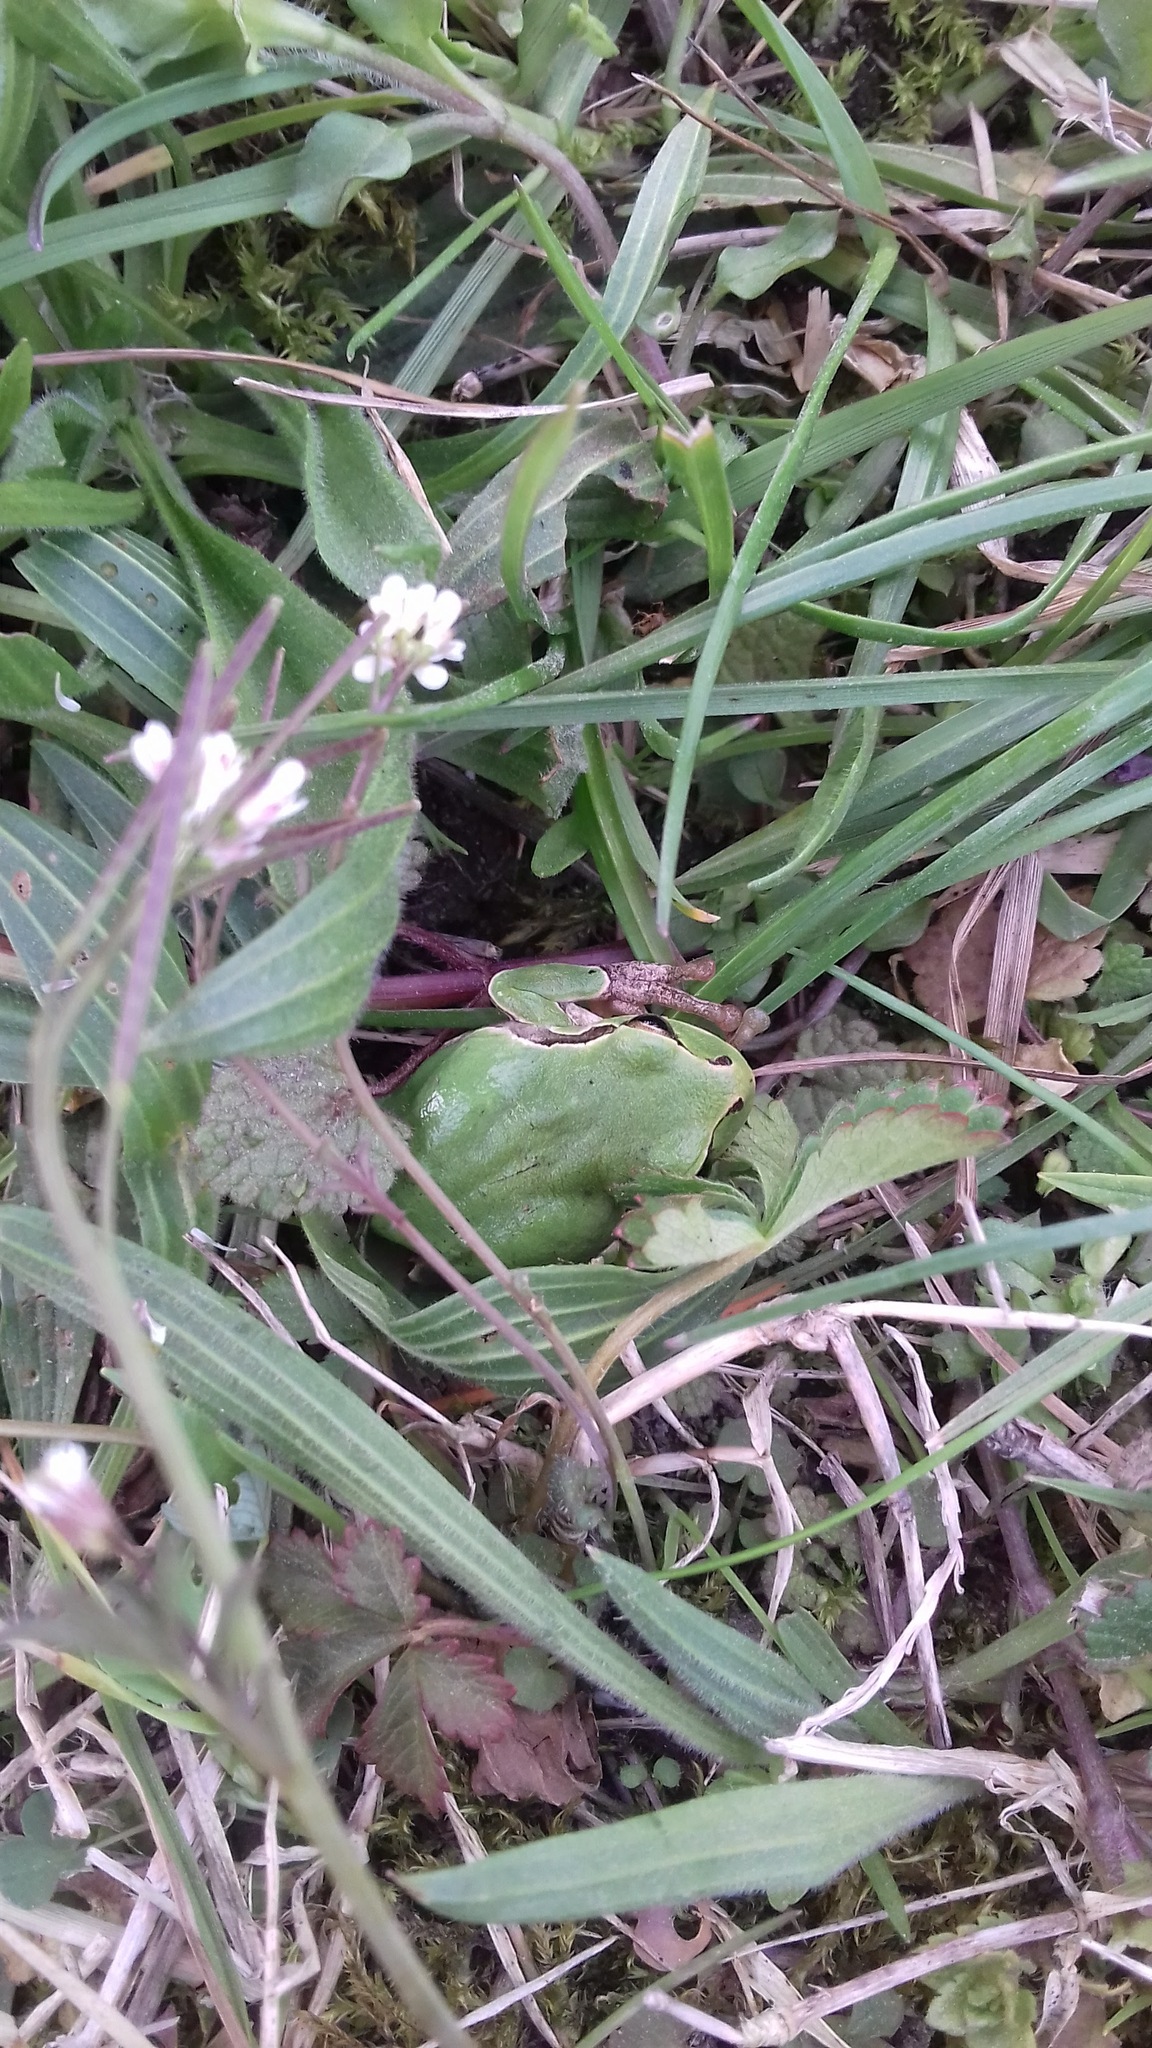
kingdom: Animalia
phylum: Chordata
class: Amphibia
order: Anura
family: Hylidae
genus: Hyla
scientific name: Hyla intermedia
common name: Italian tree frog
